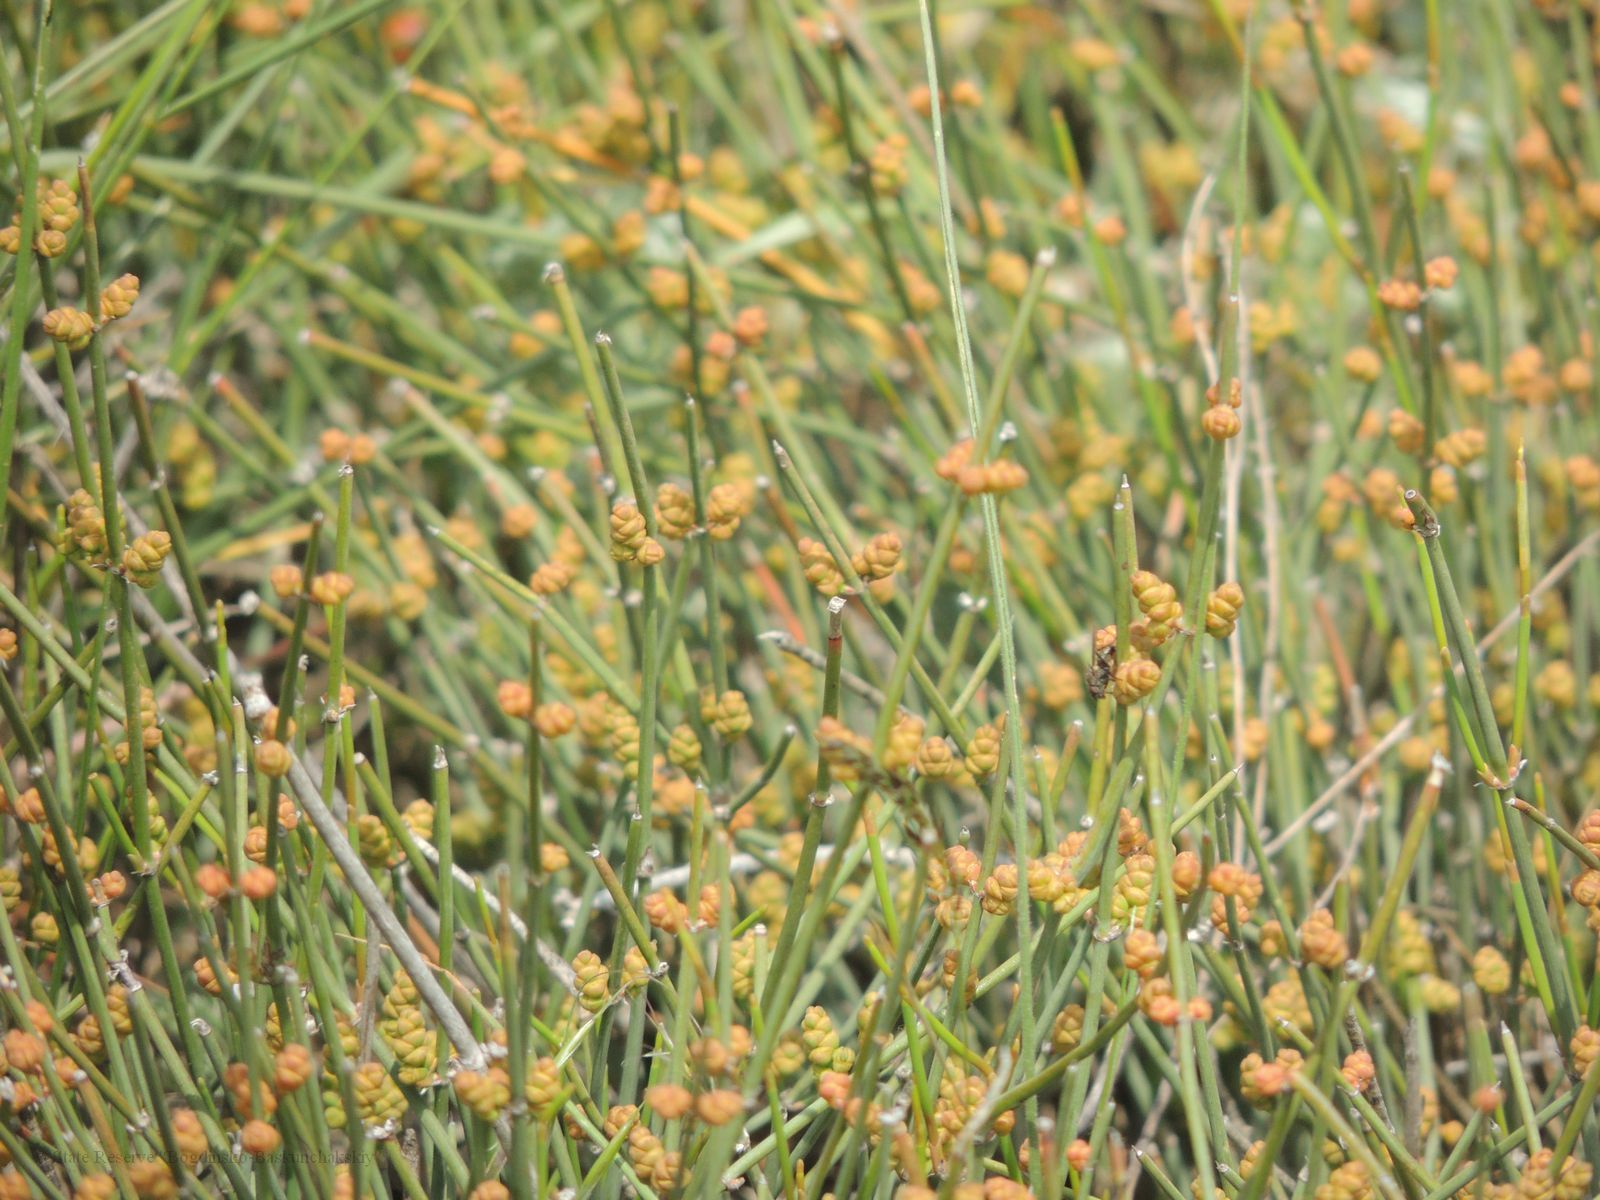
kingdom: Plantae
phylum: Tracheophyta
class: Gnetopsida
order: Ephedrales
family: Ephedraceae
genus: Ephedra
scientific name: Ephedra distachya
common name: Sea grape
